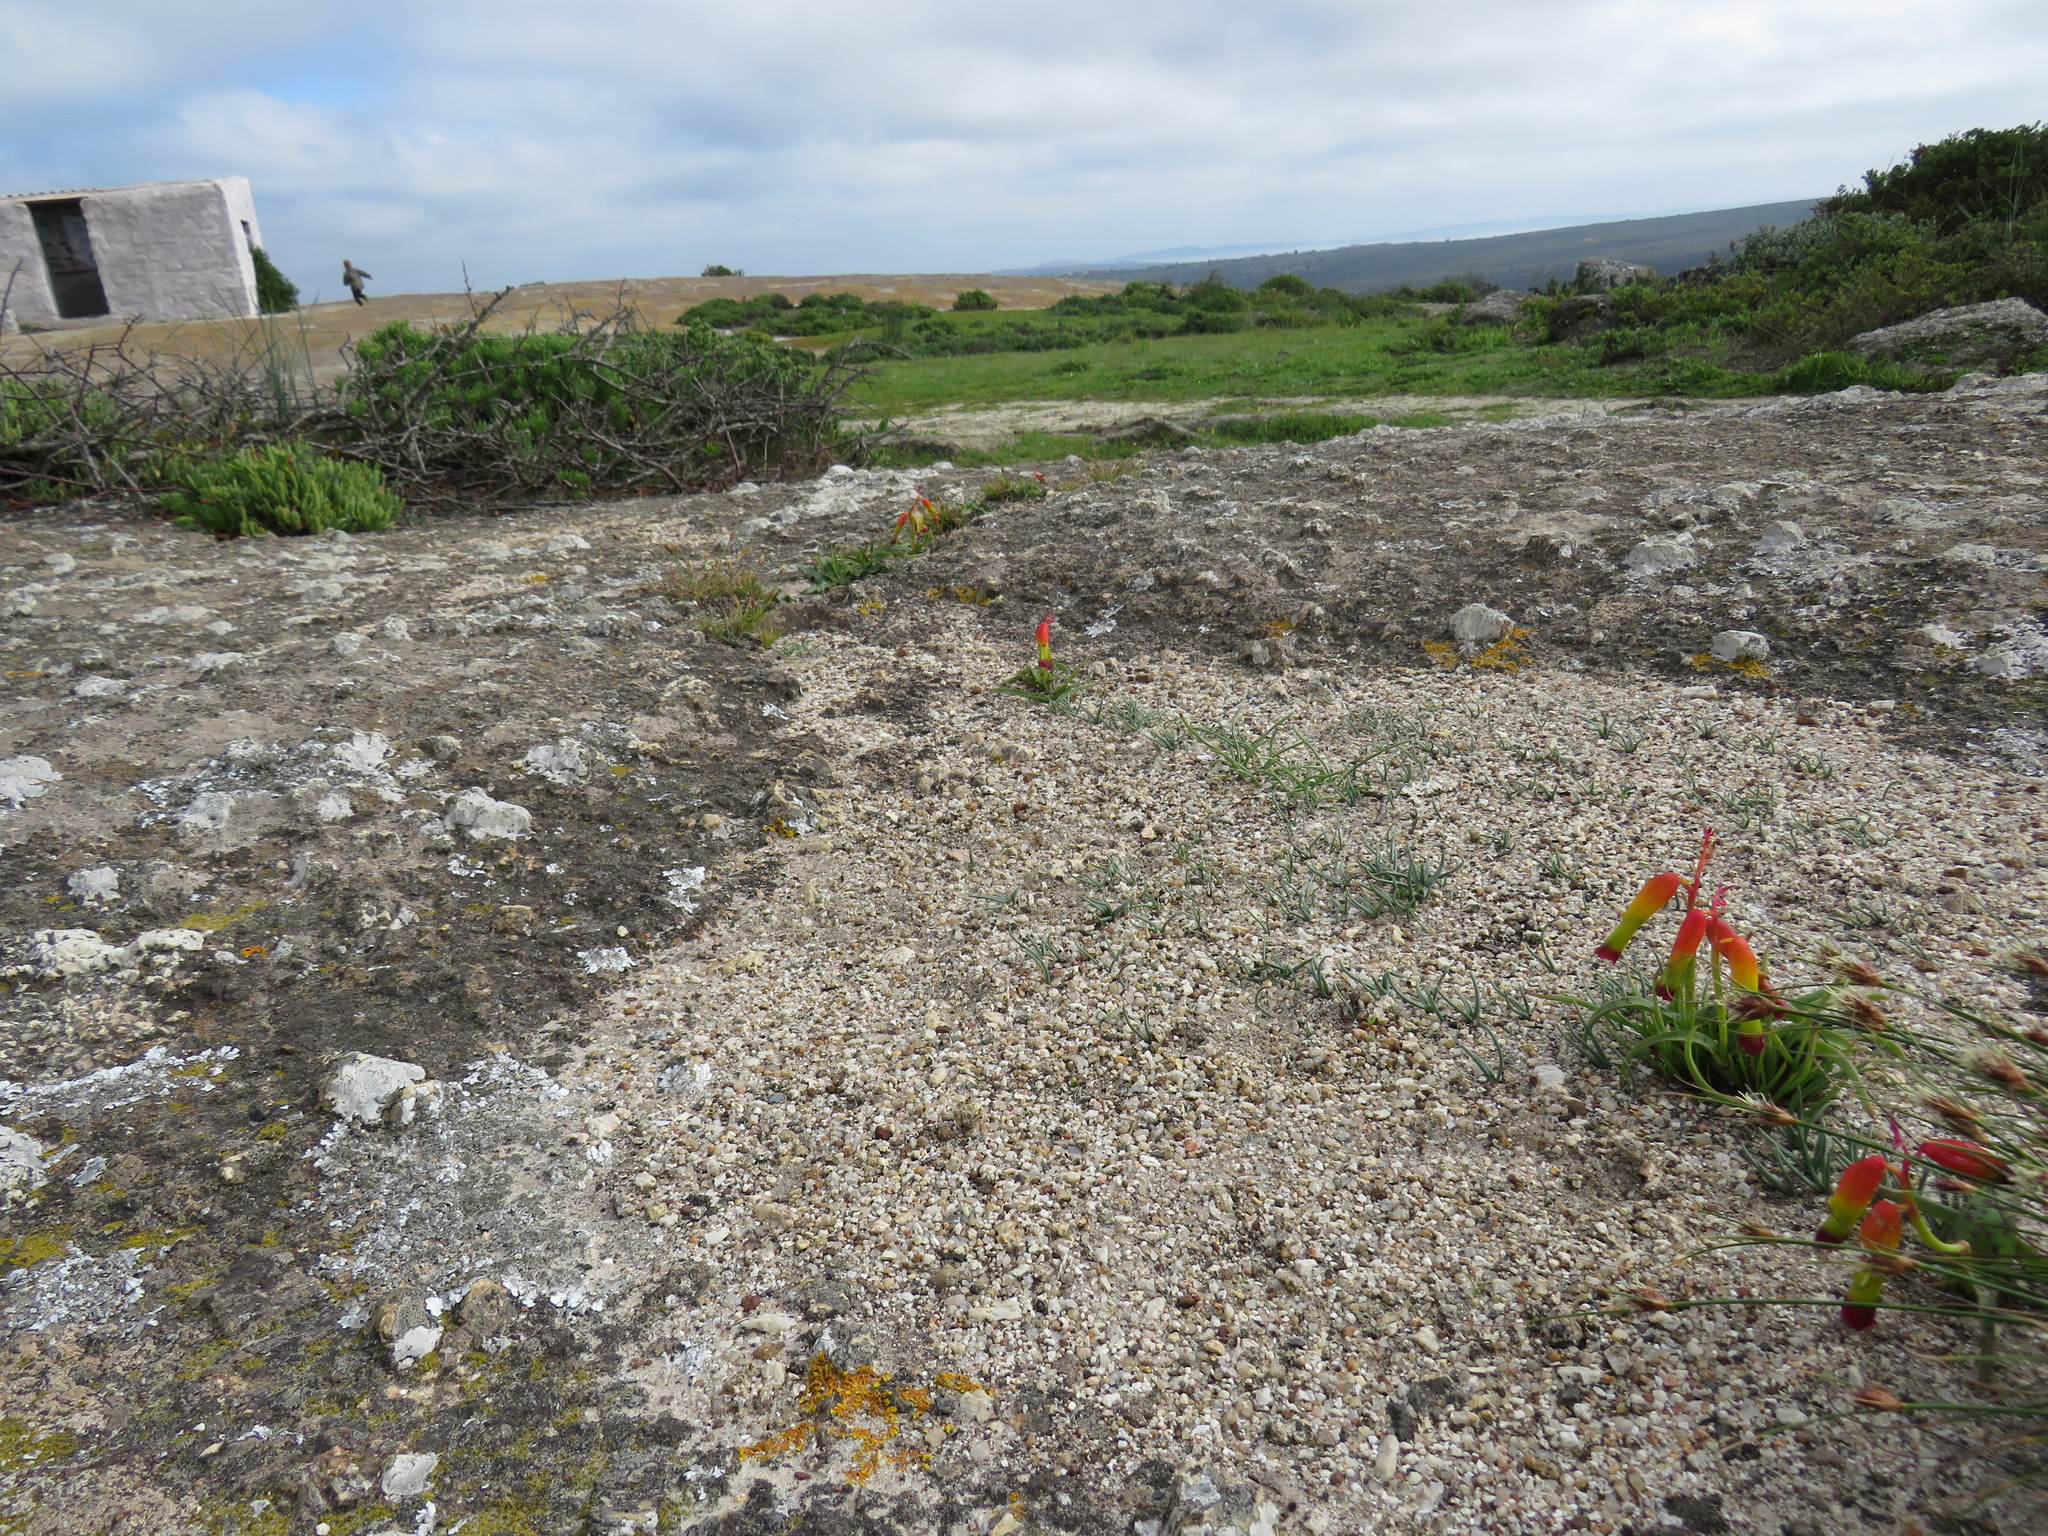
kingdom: Plantae
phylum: Tracheophyta
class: Liliopsida
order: Asparagales
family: Asparagaceae
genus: Lachenalia
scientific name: Lachenalia quadricolor
